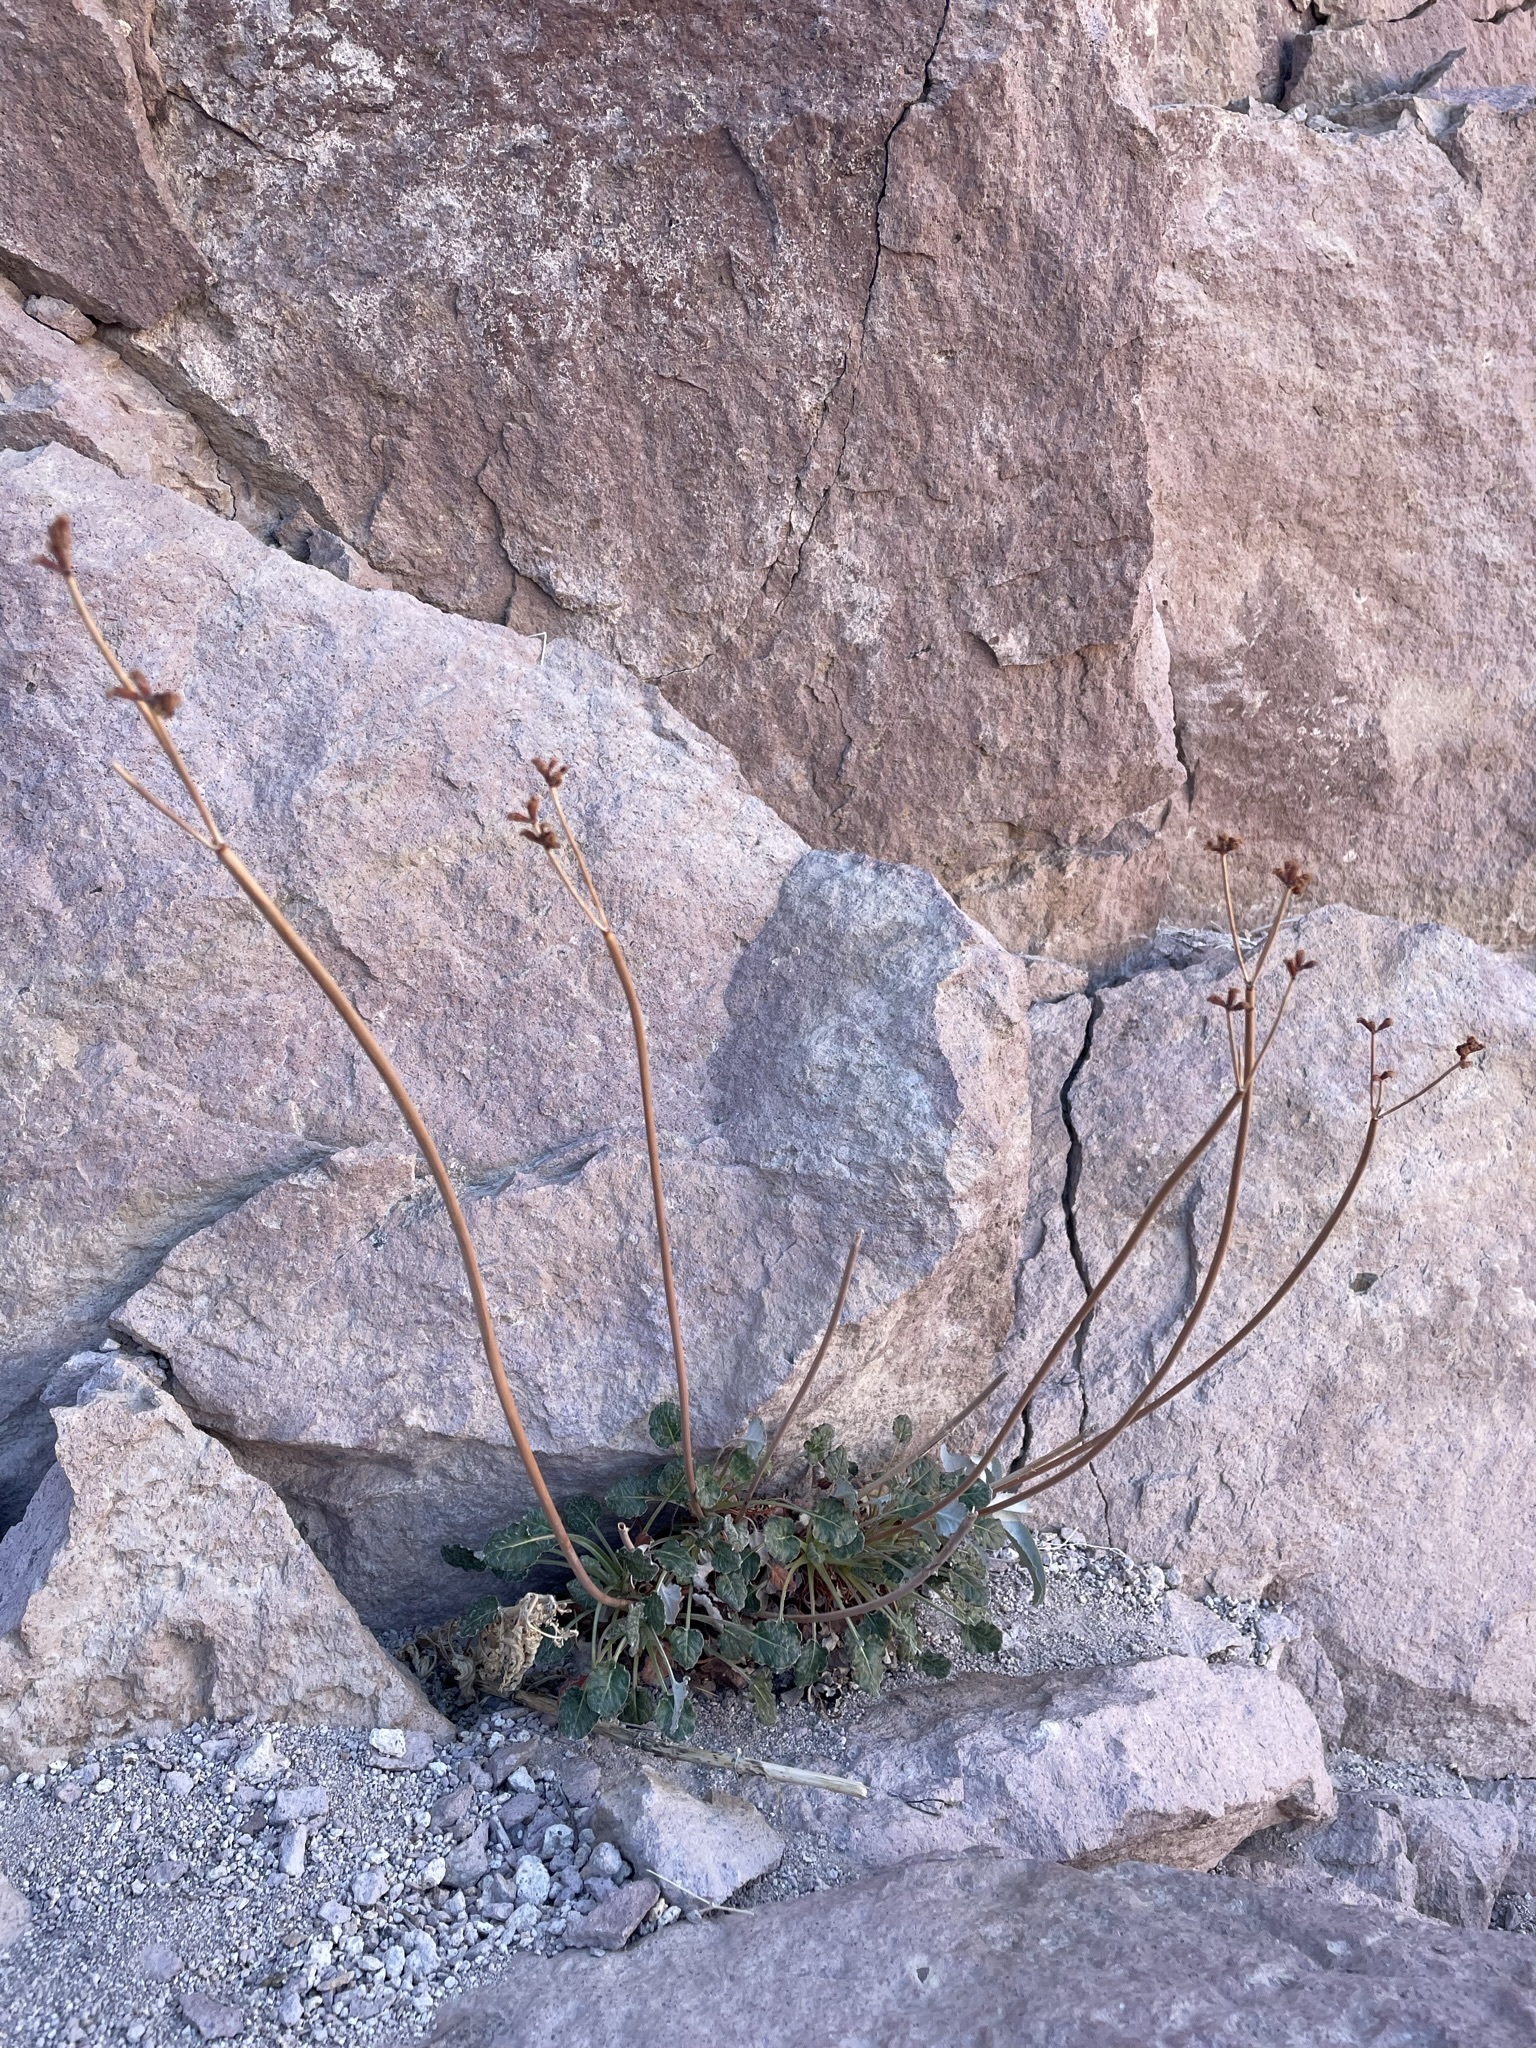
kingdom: Plantae
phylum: Tracheophyta
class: Magnoliopsida
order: Caryophyllales
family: Polygonaceae
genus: Eriogonum
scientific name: Eriogonum nudum
